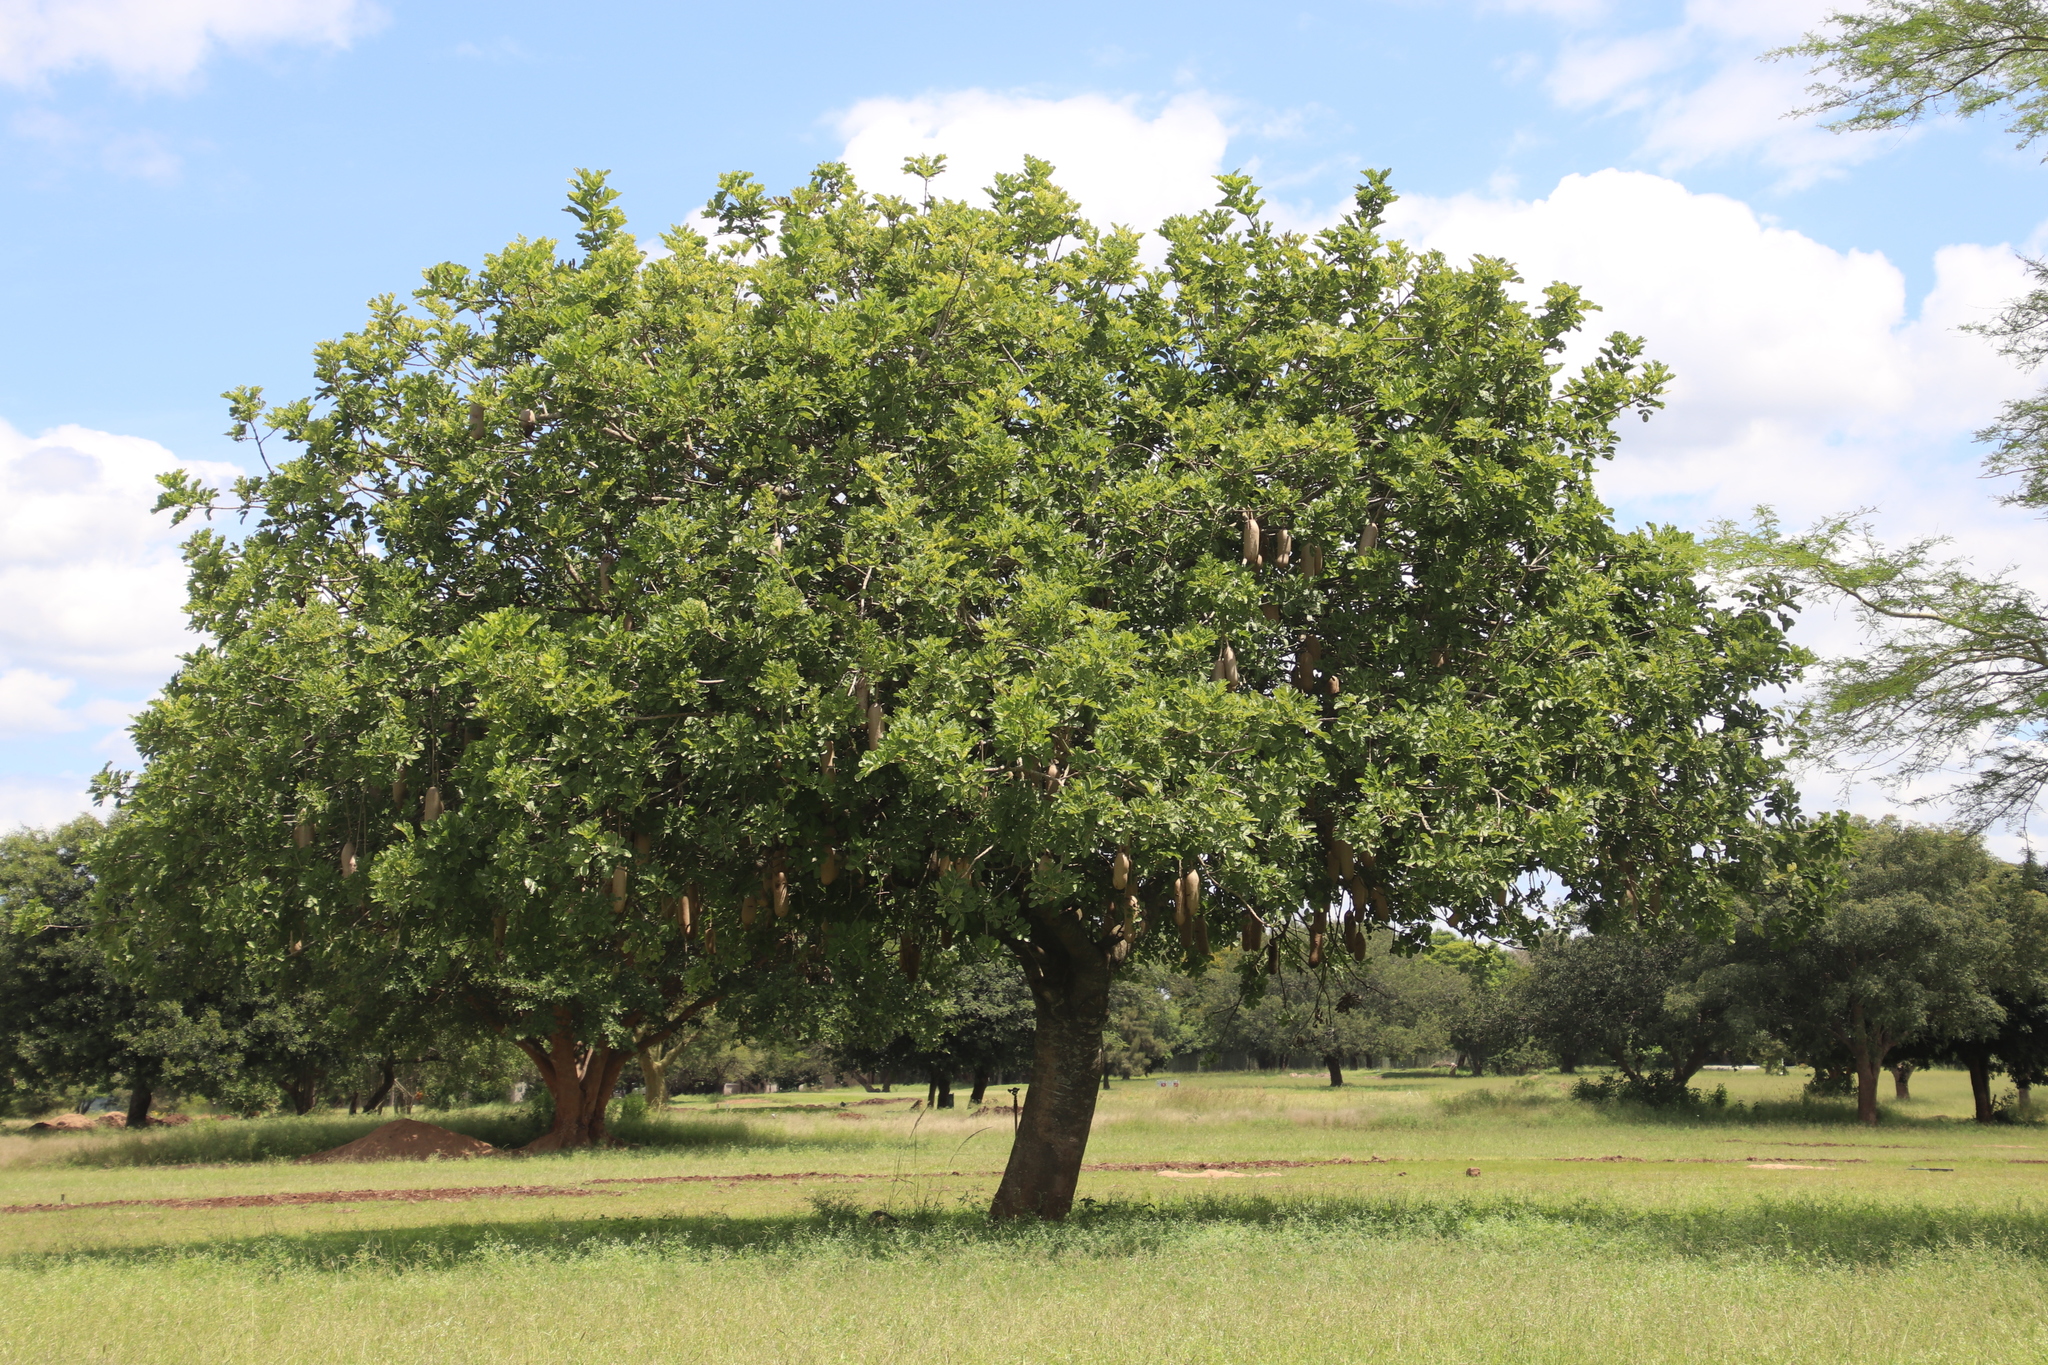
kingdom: Plantae
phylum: Tracheophyta
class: Magnoliopsida
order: Lamiales
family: Bignoniaceae
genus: Kigelia
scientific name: Kigelia africana
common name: Sausage tree
